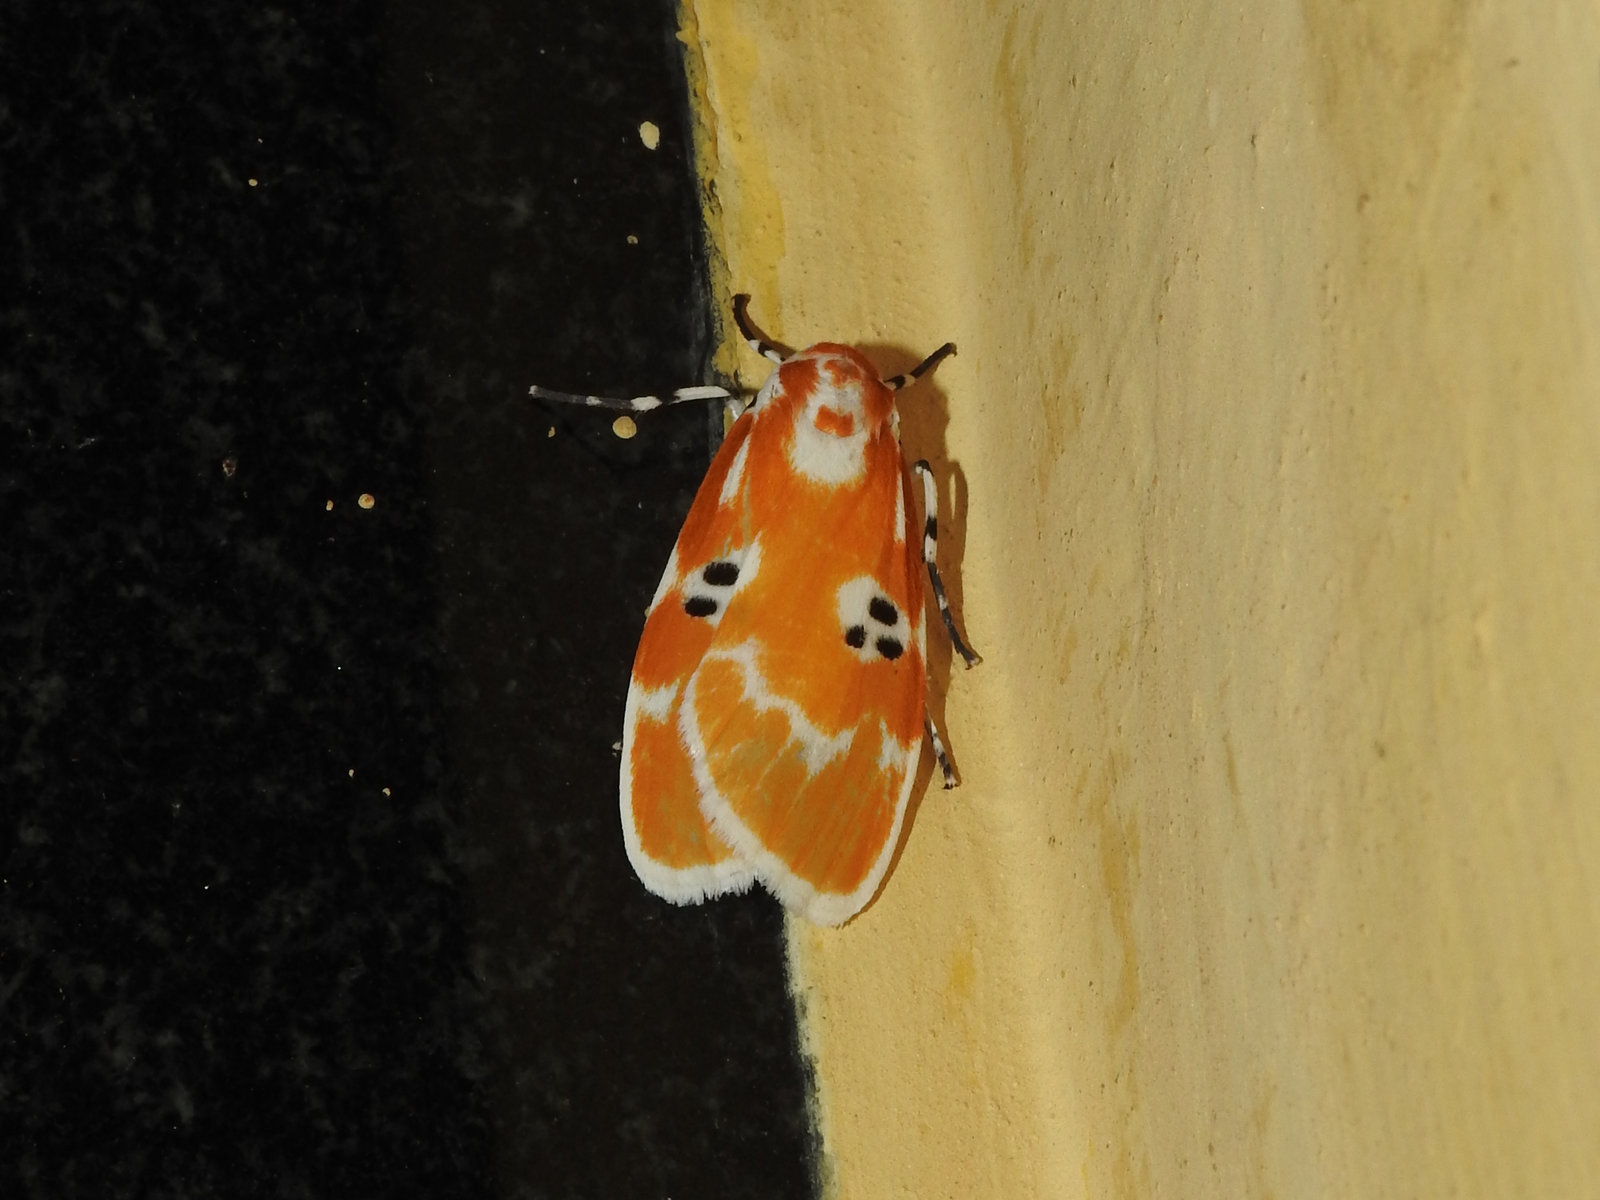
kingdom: Animalia
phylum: Arthropoda
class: Insecta
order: Lepidoptera
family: Erebidae
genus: Cyana
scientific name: Cyana divakara
